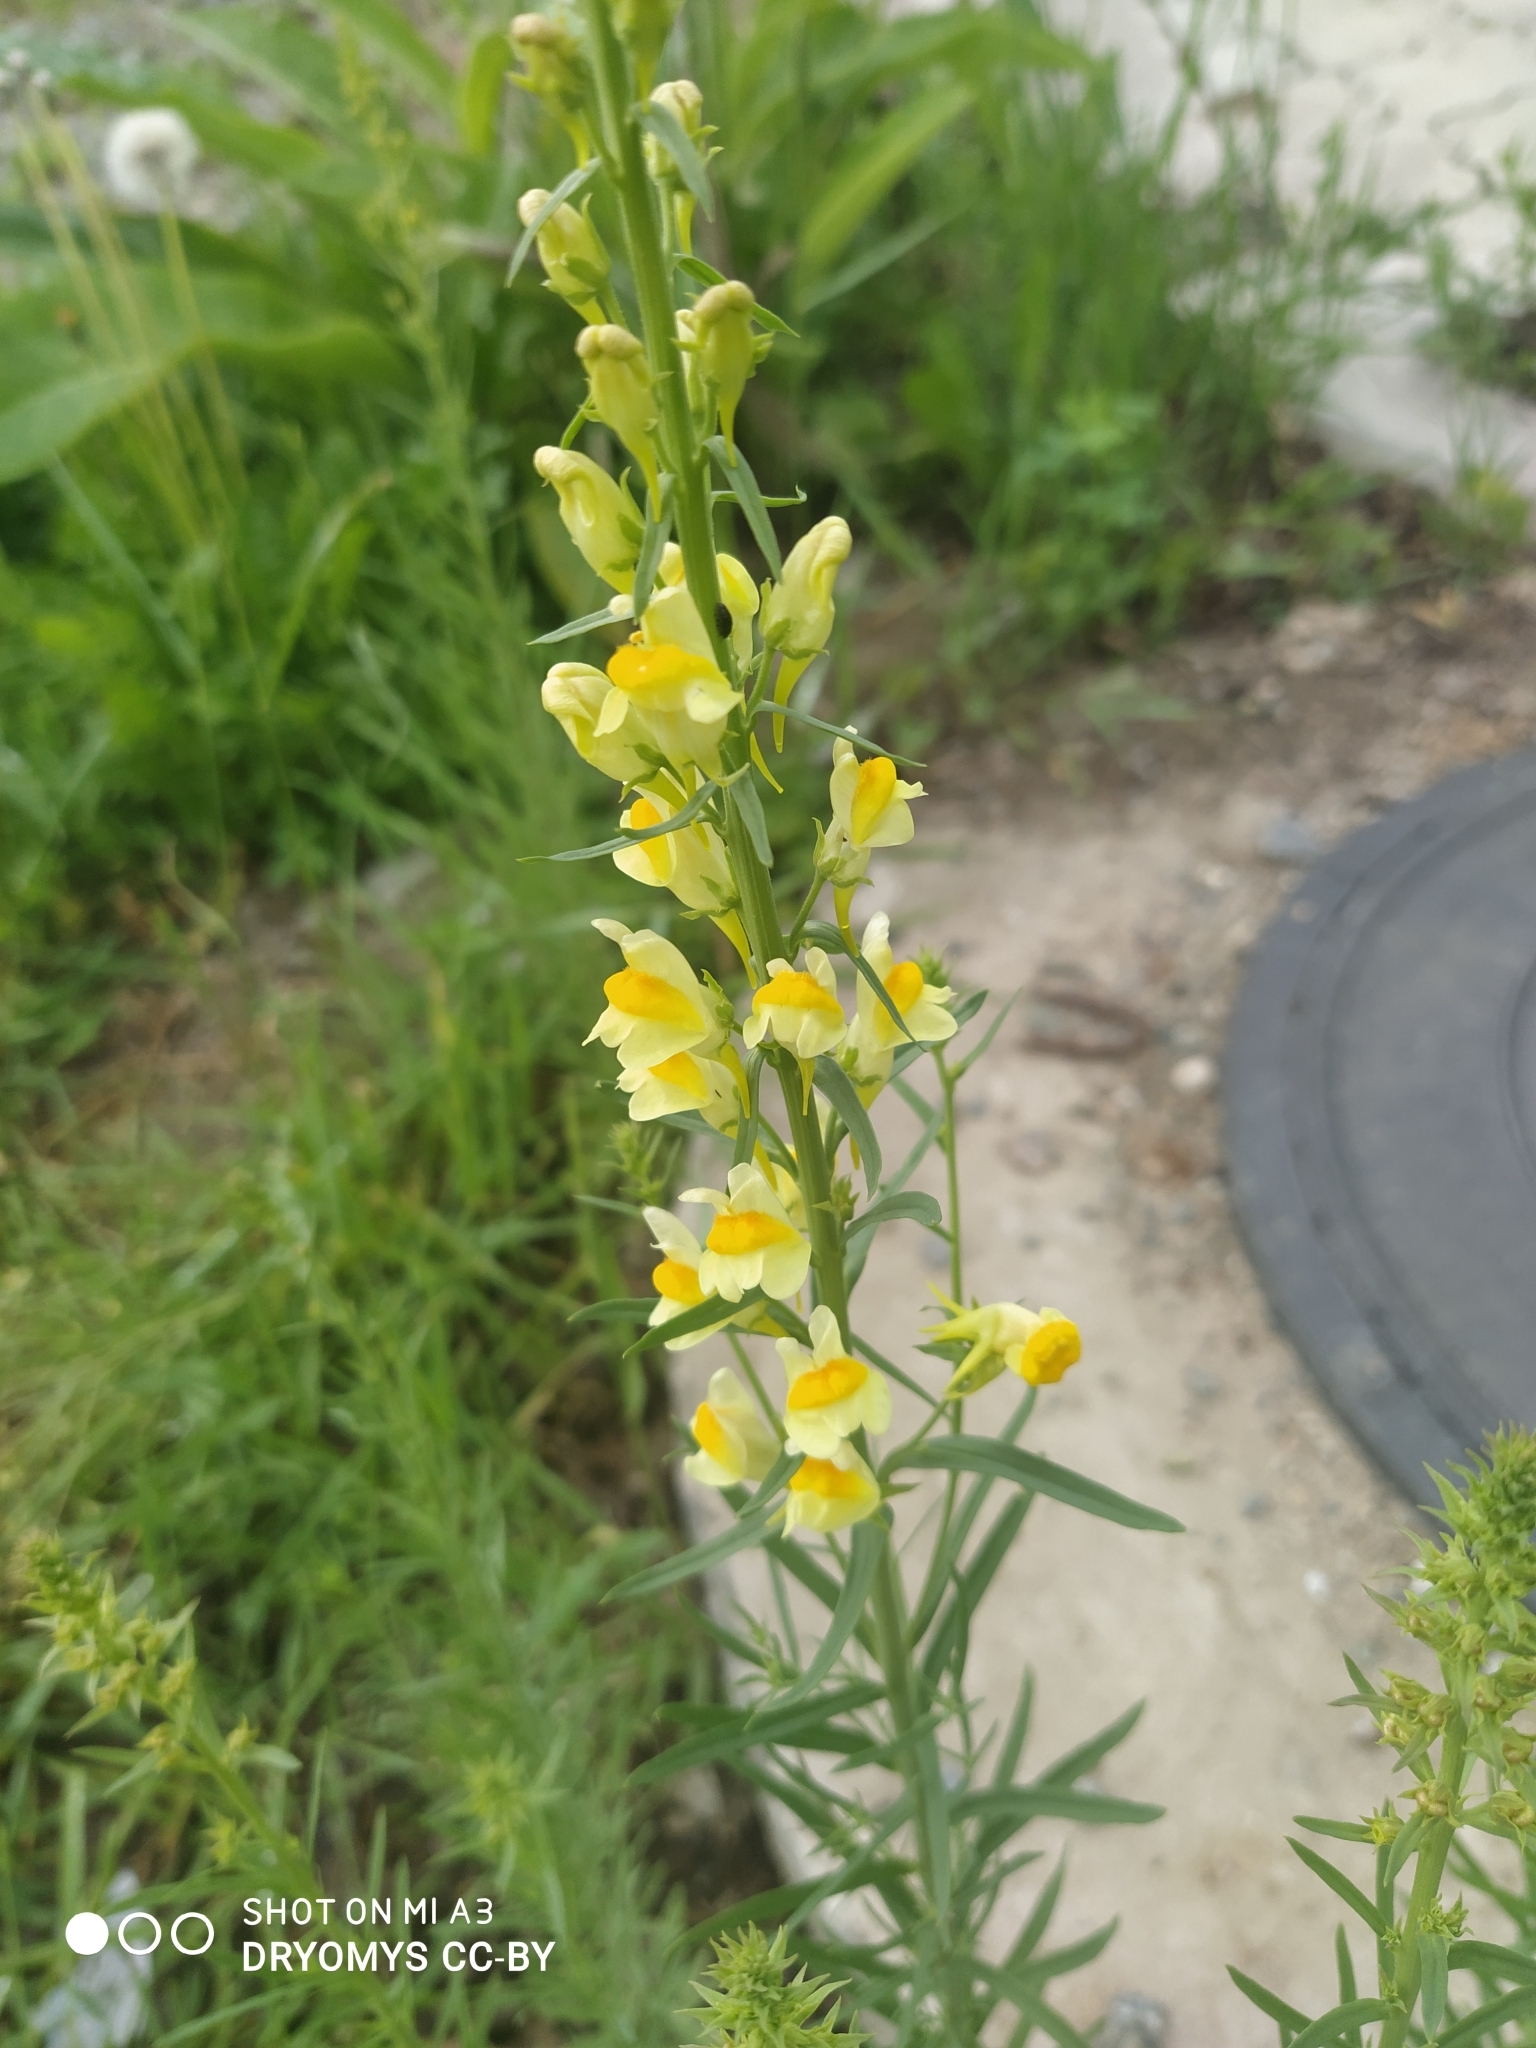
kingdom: Plantae
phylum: Tracheophyta
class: Magnoliopsida
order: Lamiales
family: Plantaginaceae
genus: Linaria
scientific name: Linaria vulgaris
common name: Butter and eggs
